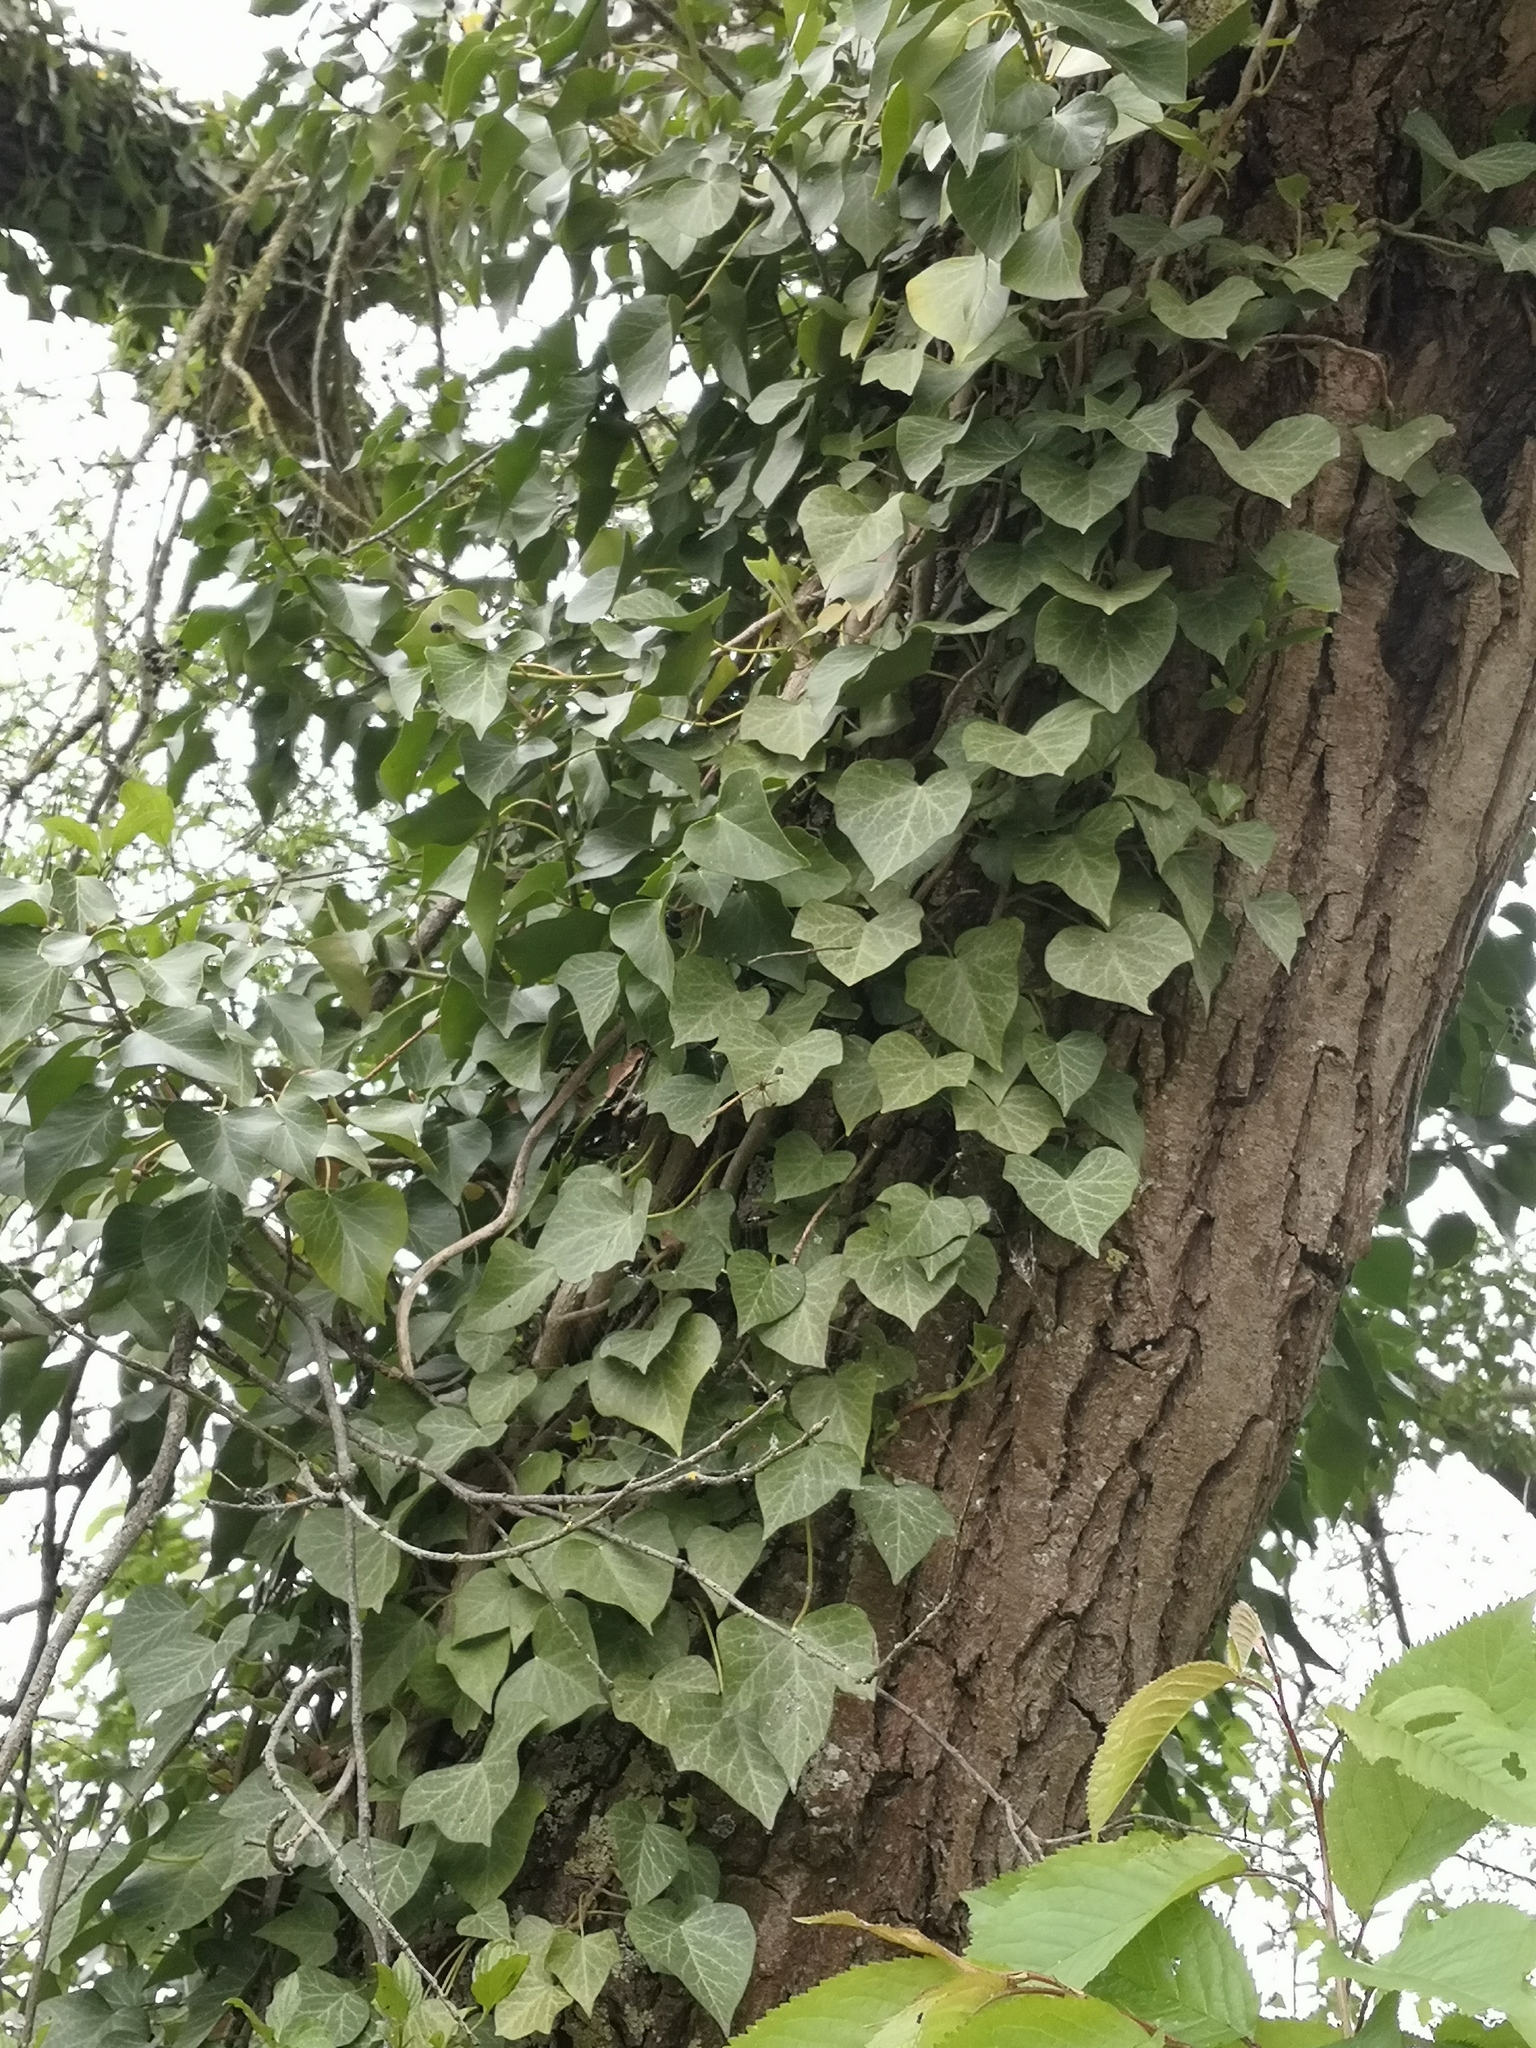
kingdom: Plantae
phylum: Tracheophyta
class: Magnoliopsida
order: Apiales
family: Araliaceae
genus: Hedera
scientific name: Hedera helix
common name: Ivy
